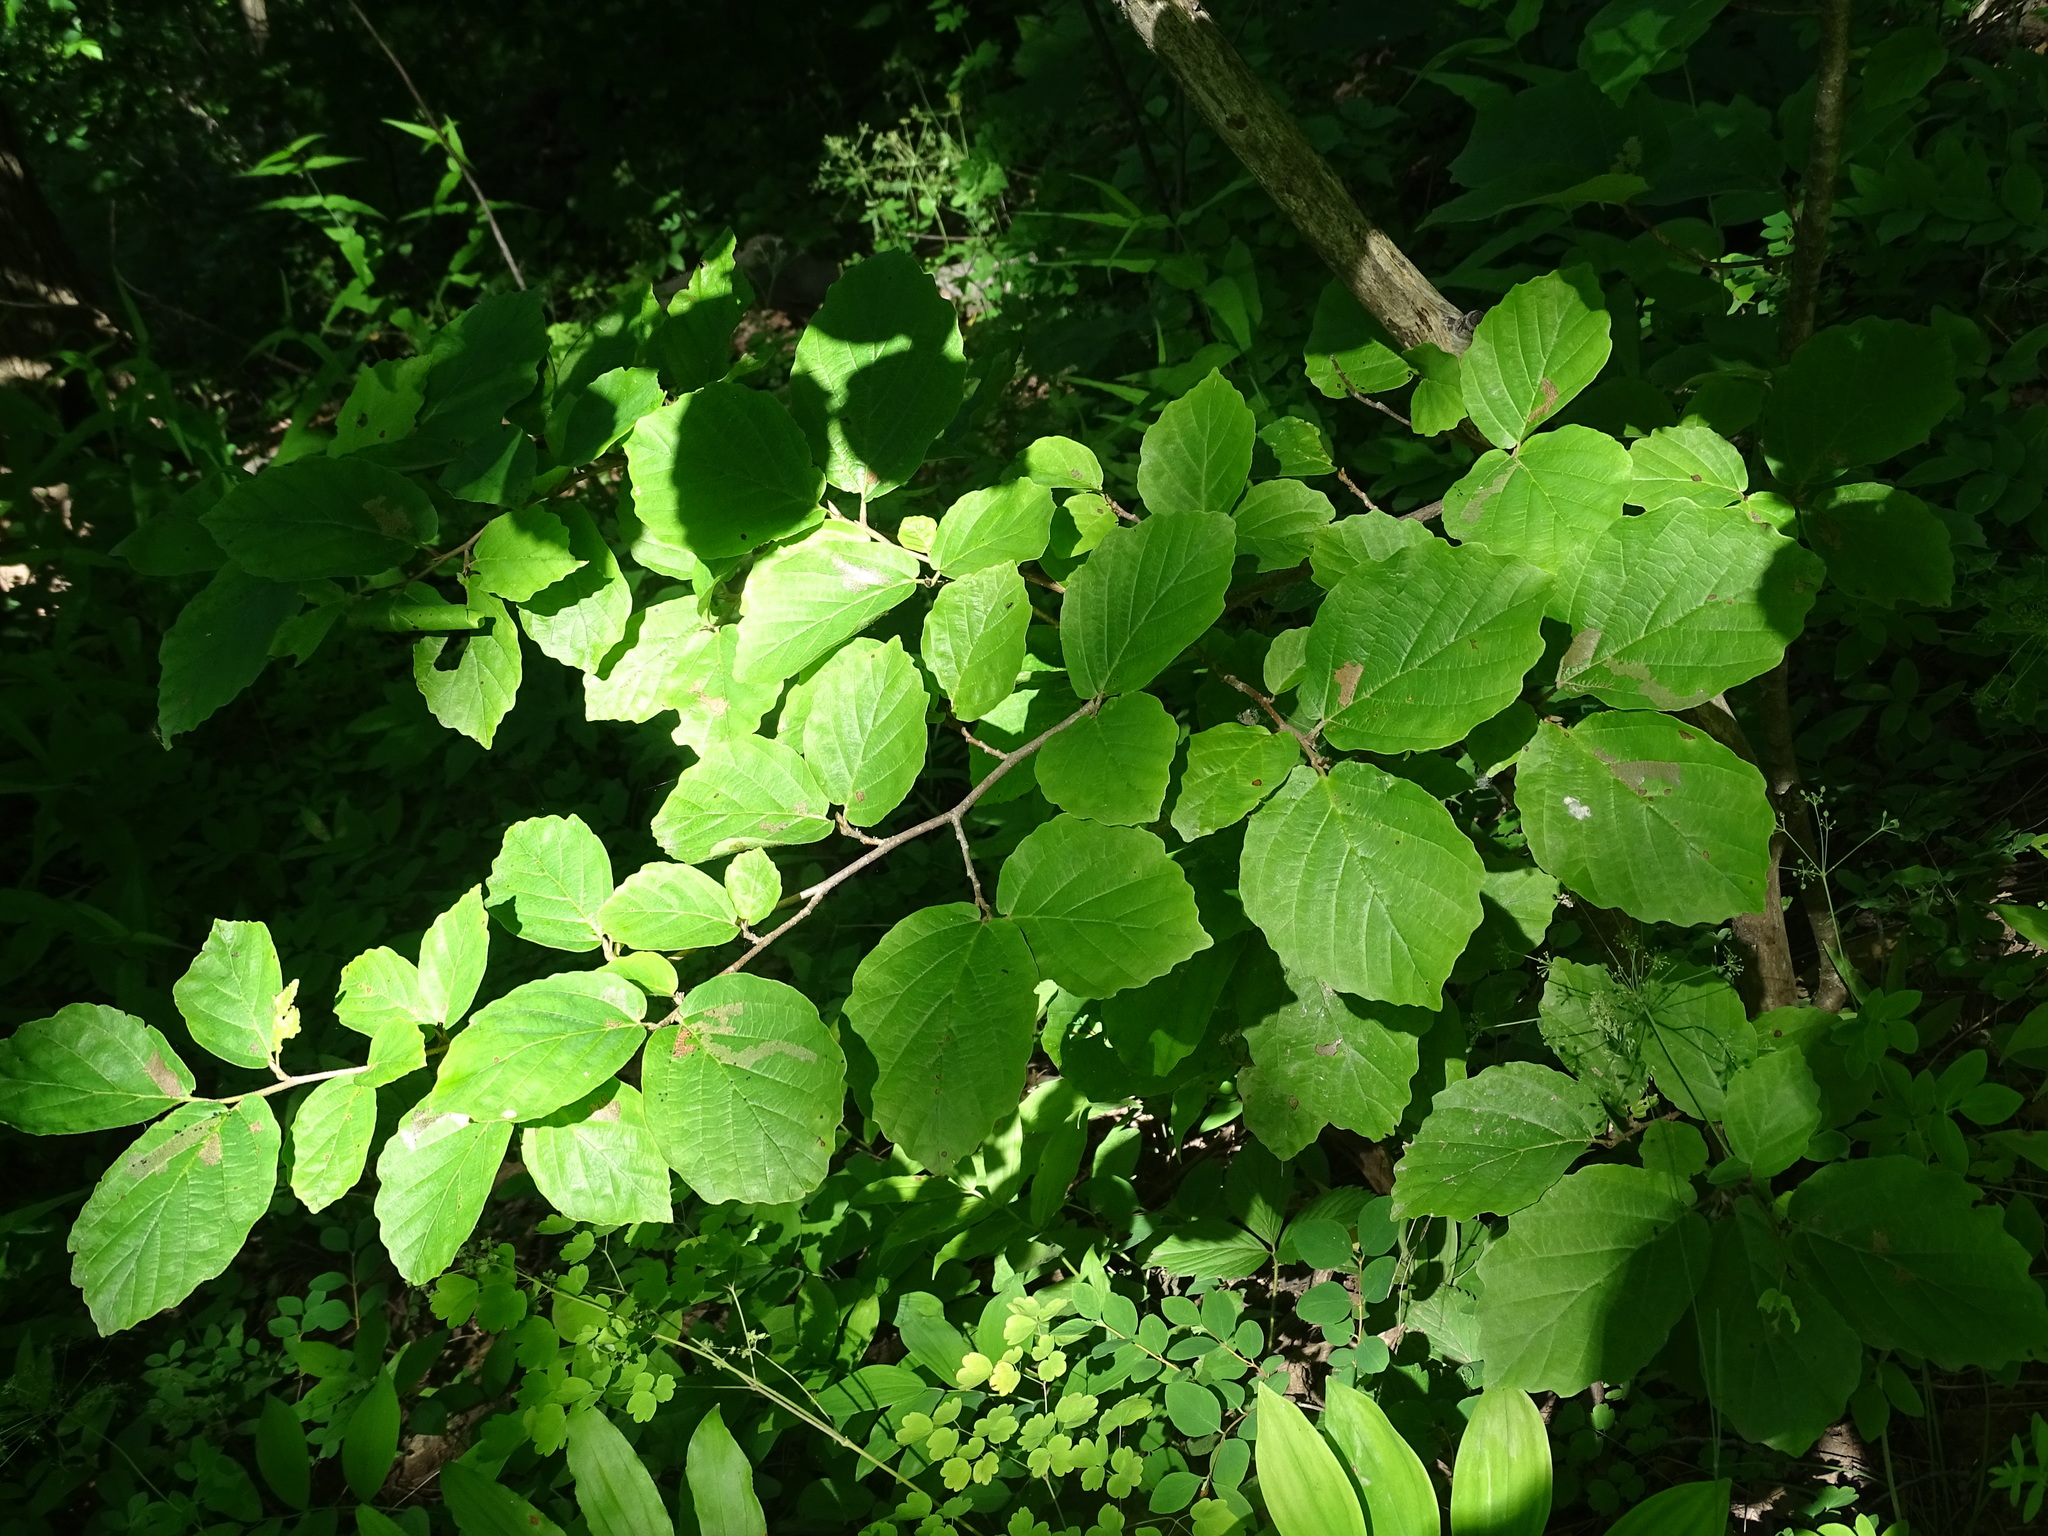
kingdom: Plantae
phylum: Tracheophyta
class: Magnoliopsida
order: Saxifragales
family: Hamamelidaceae
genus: Hamamelis
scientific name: Hamamelis virginiana
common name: Witch-hazel
